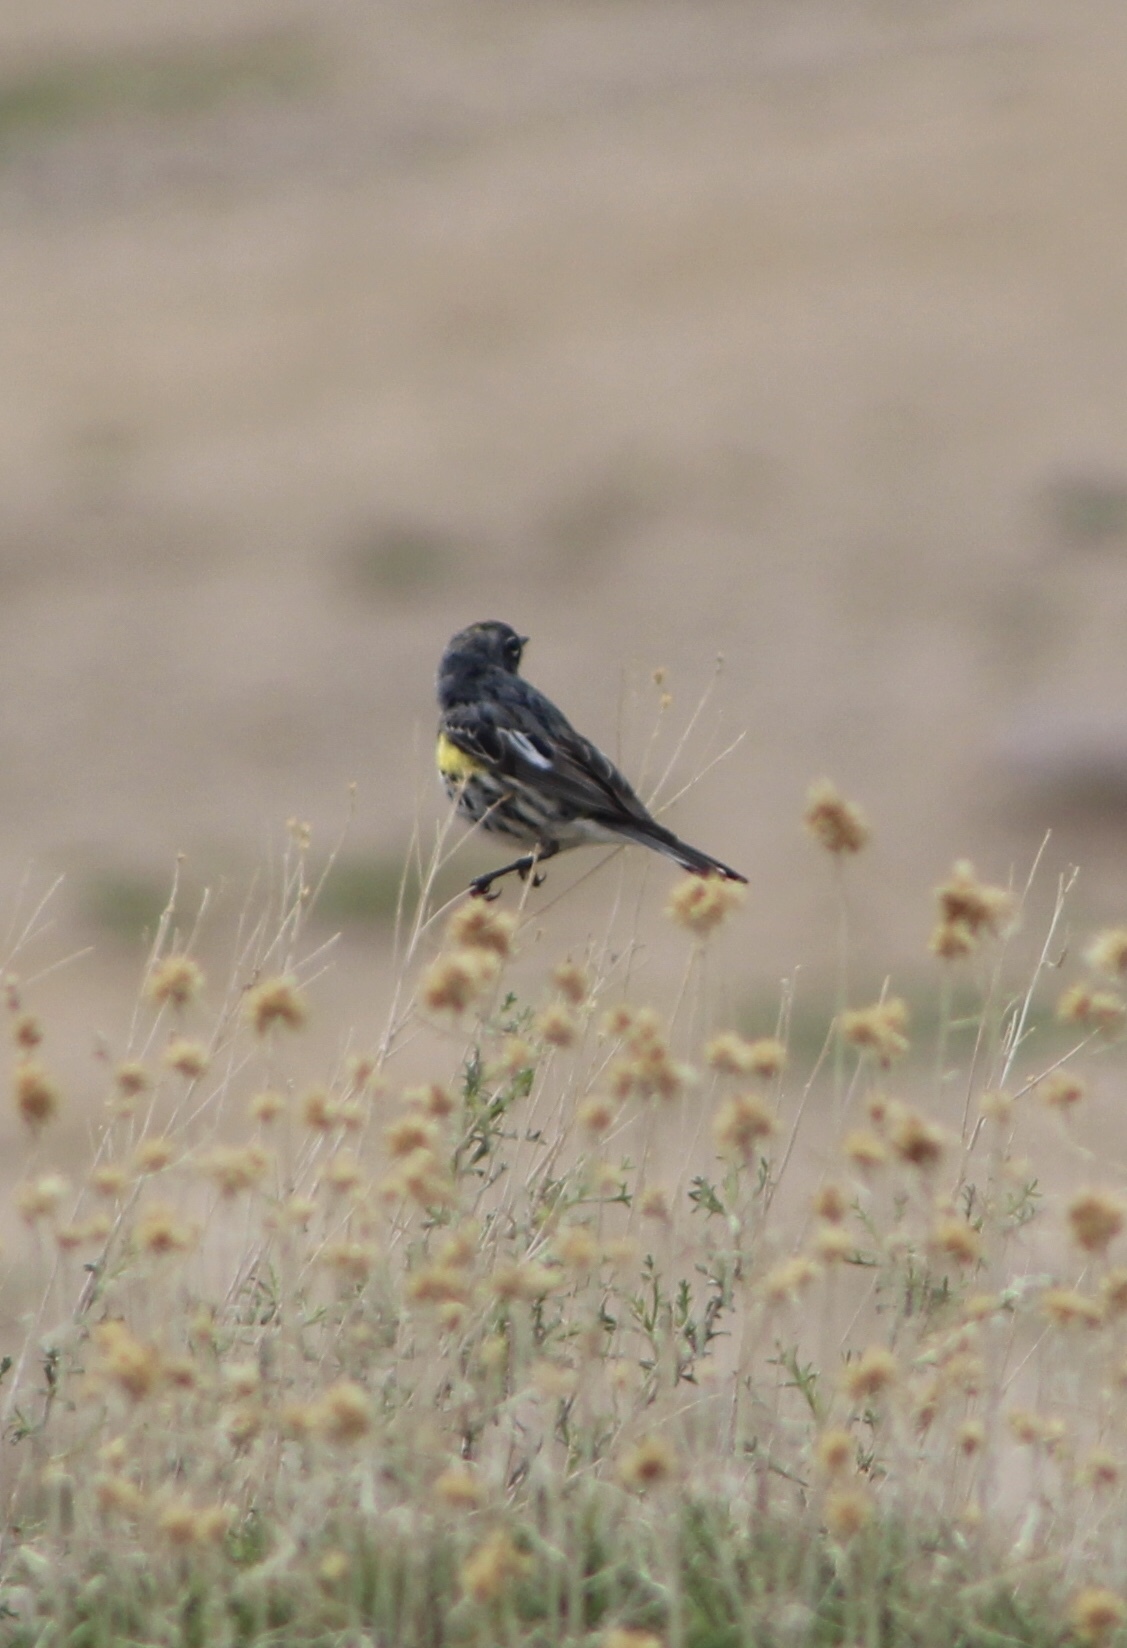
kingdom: Animalia
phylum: Chordata
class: Aves
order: Passeriformes
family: Parulidae
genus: Setophaga
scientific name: Setophaga auduboni
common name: Audubon's warbler
